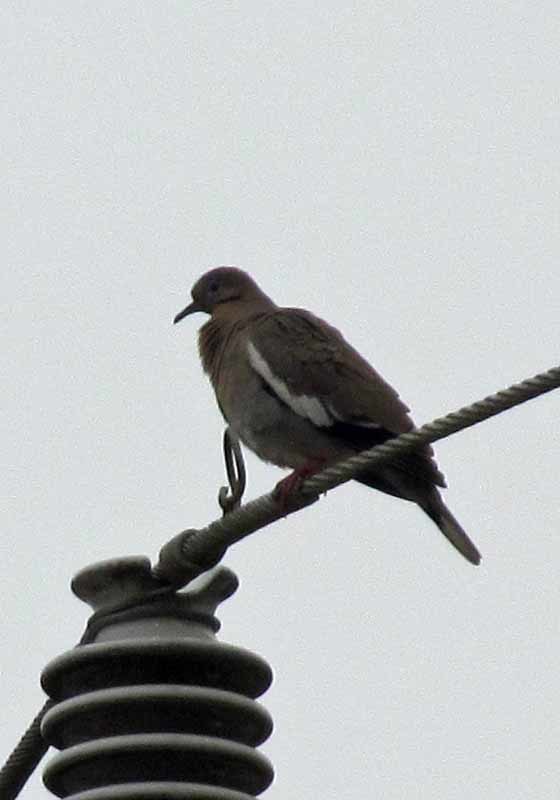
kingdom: Animalia
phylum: Chordata
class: Aves
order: Columbiformes
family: Columbidae
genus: Zenaida
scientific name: Zenaida asiatica
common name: White-winged dove
